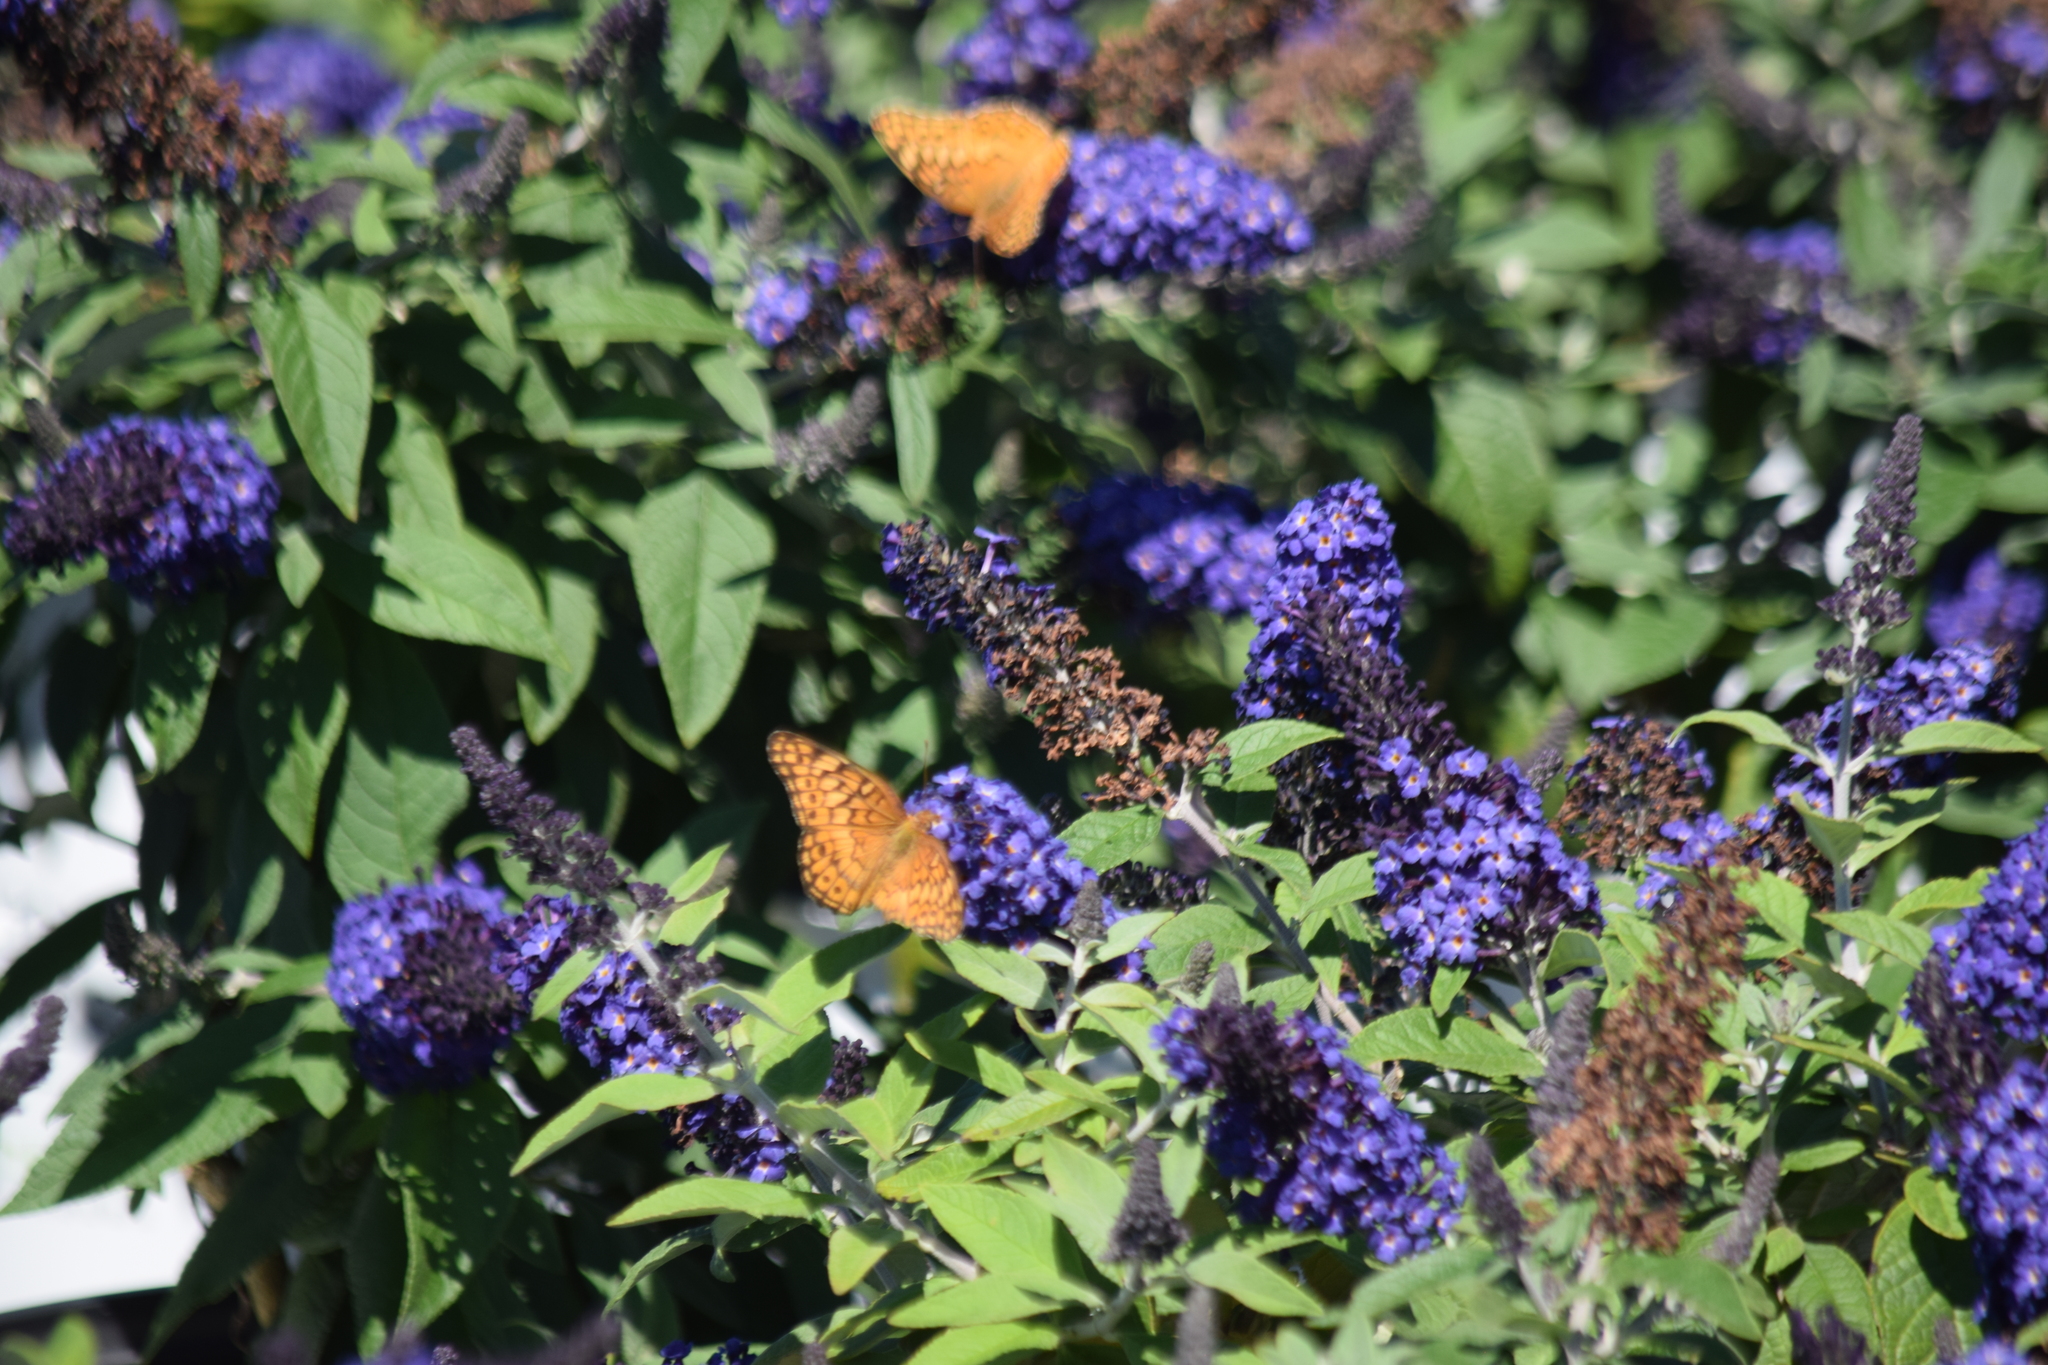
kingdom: Animalia
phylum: Arthropoda
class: Insecta
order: Lepidoptera
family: Nymphalidae
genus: Euptoieta
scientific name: Euptoieta claudia
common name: Variegated fritillary
